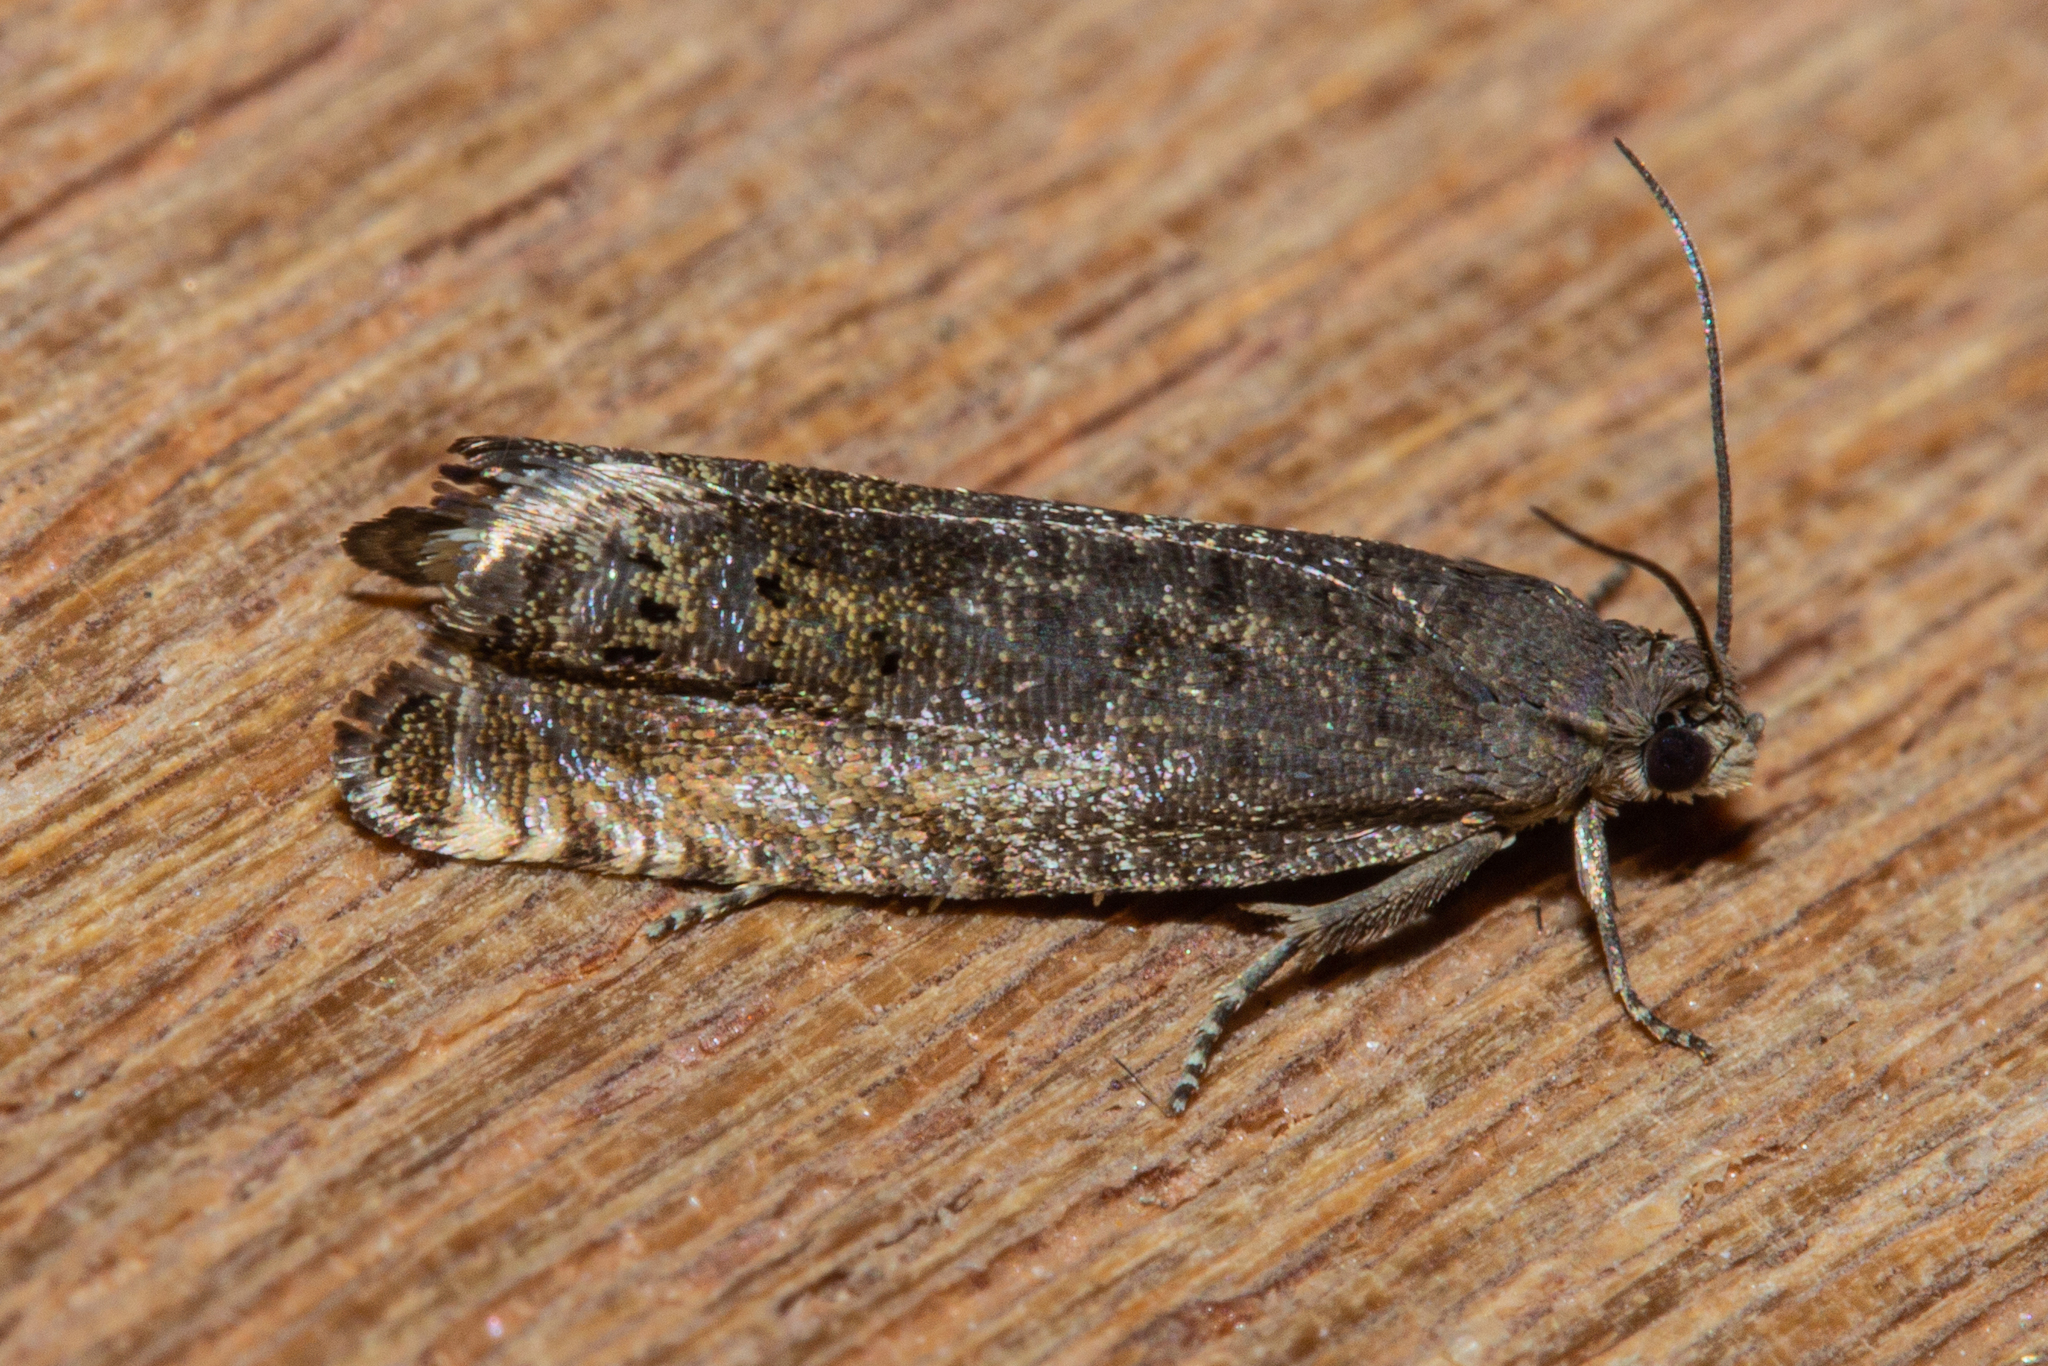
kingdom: Animalia
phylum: Arthropoda
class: Insecta
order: Lepidoptera
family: Tortricidae
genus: Cydia
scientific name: Cydia succedana
